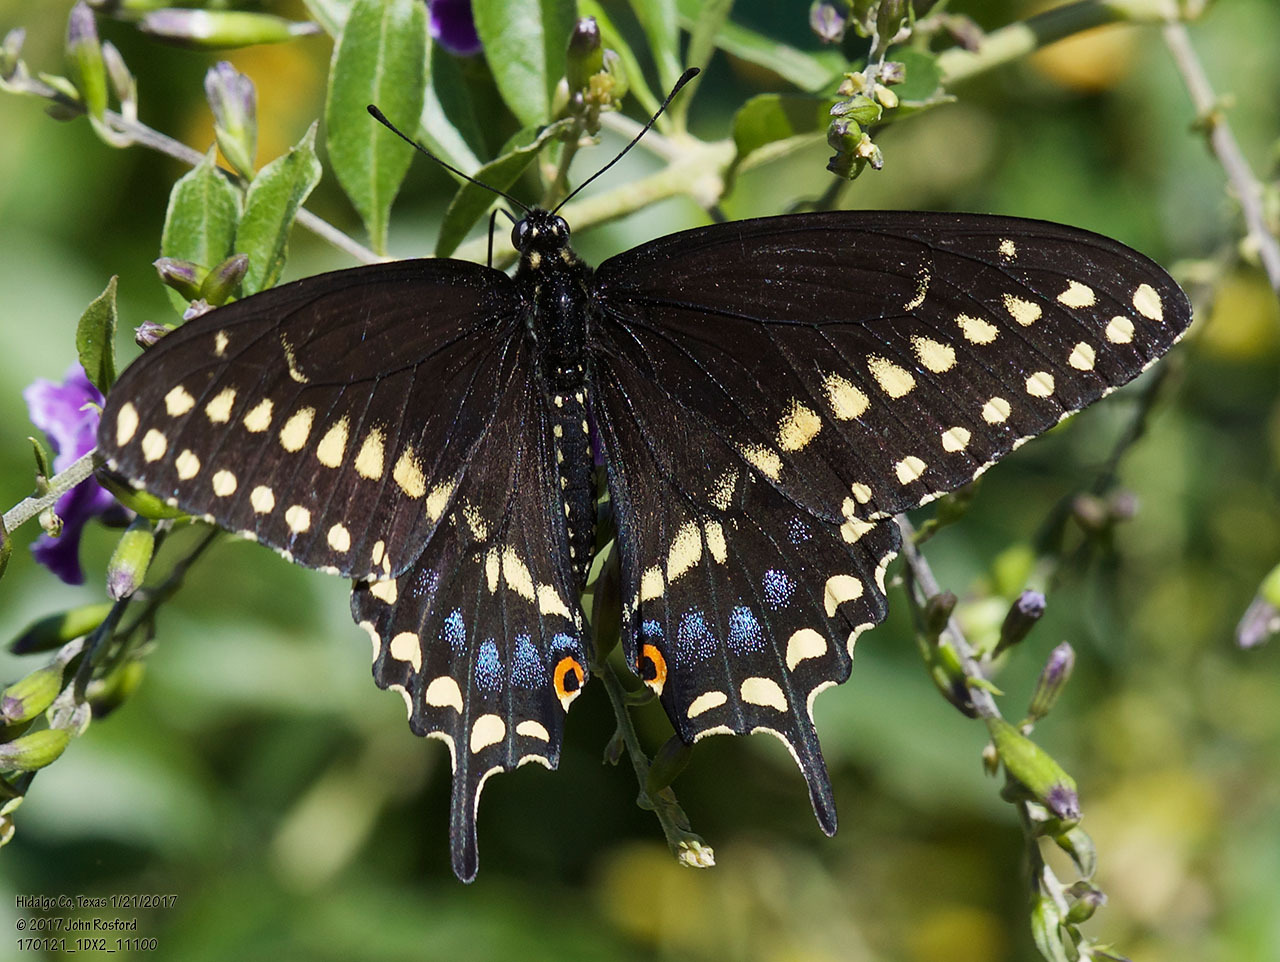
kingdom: Animalia
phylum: Arthropoda
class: Insecta
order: Lepidoptera
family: Papilionidae
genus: Papilio
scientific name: Papilio polyxenes
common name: Black swallowtail
